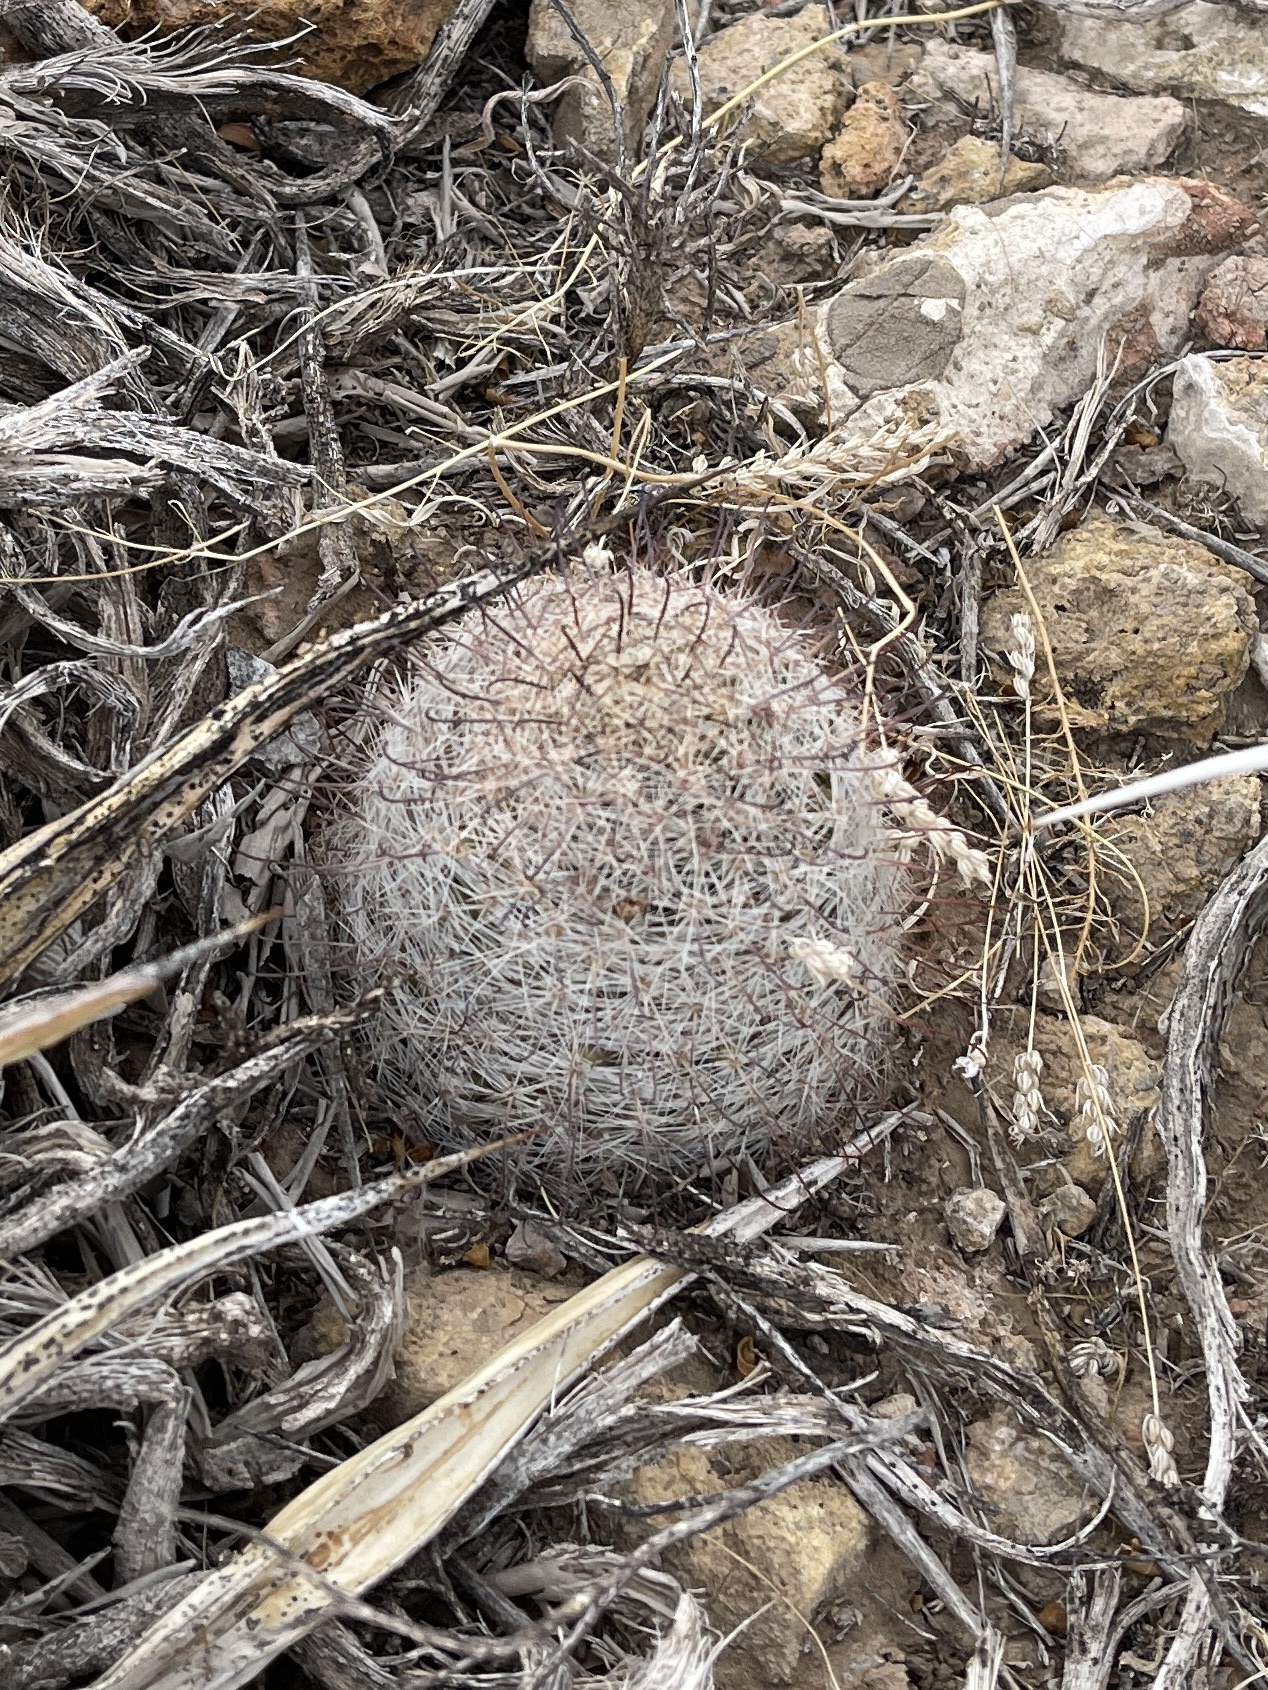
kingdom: Plantae
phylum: Tracheophyta
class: Magnoliopsida
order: Caryophyllales
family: Cactaceae
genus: Cochemiea
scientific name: Cochemiea grahamii
